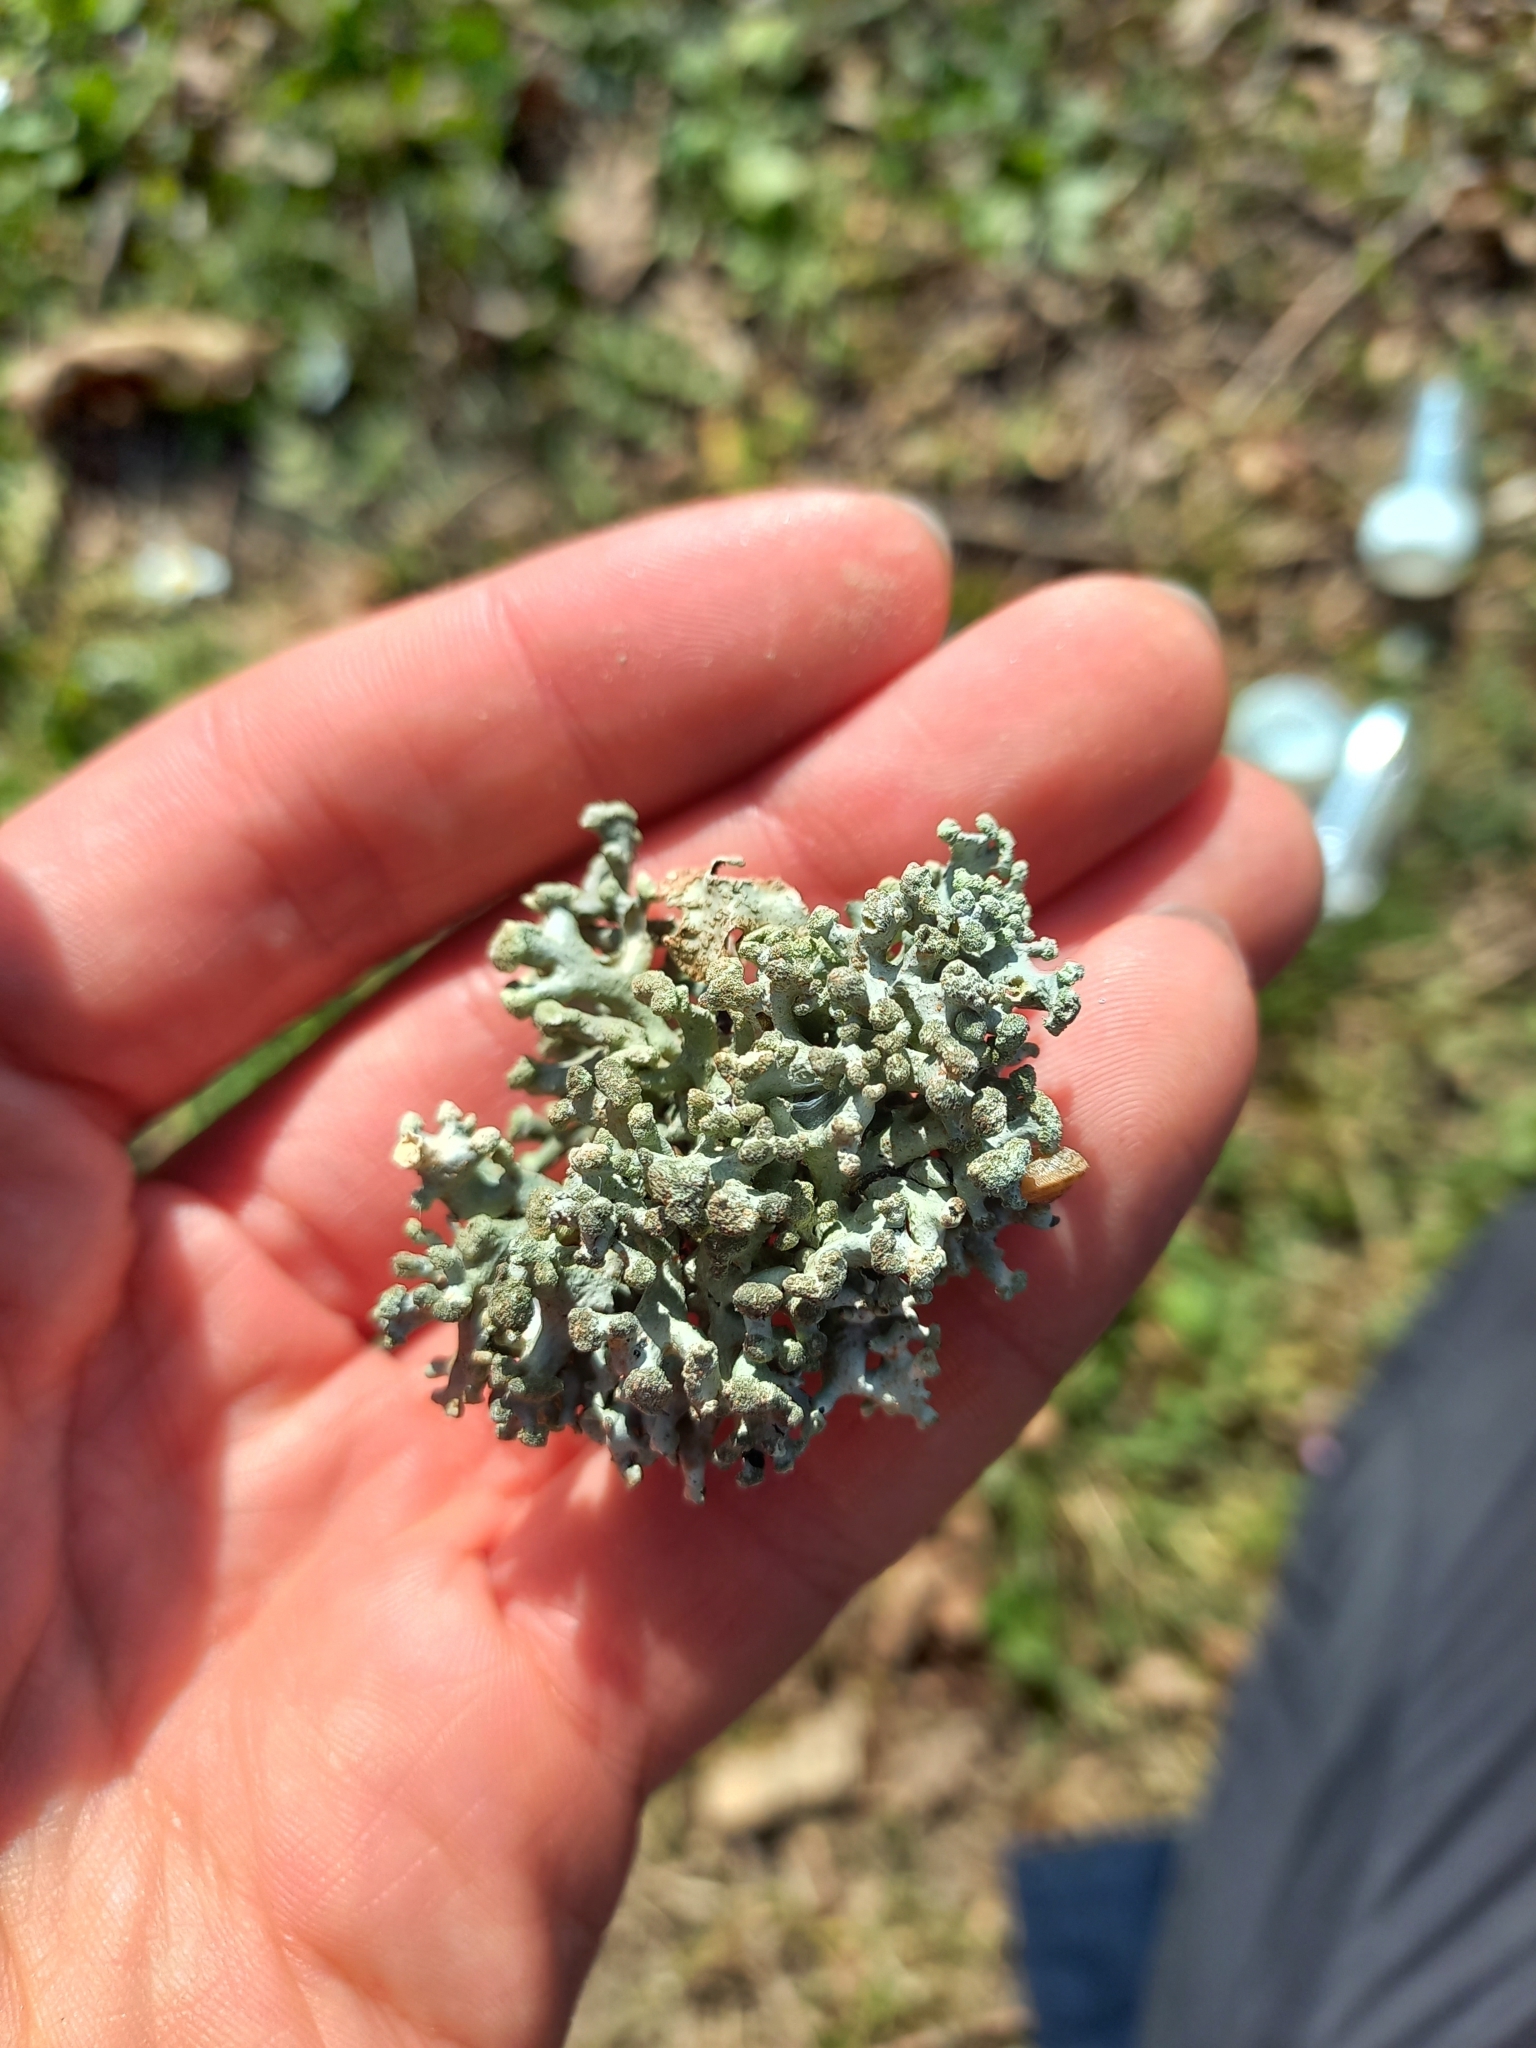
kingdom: Fungi
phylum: Ascomycota
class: Lecanoromycetes
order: Lecanorales
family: Parmeliaceae
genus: Hypogymnia
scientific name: Hypogymnia tubulosa
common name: Powder-headed tube lichen
